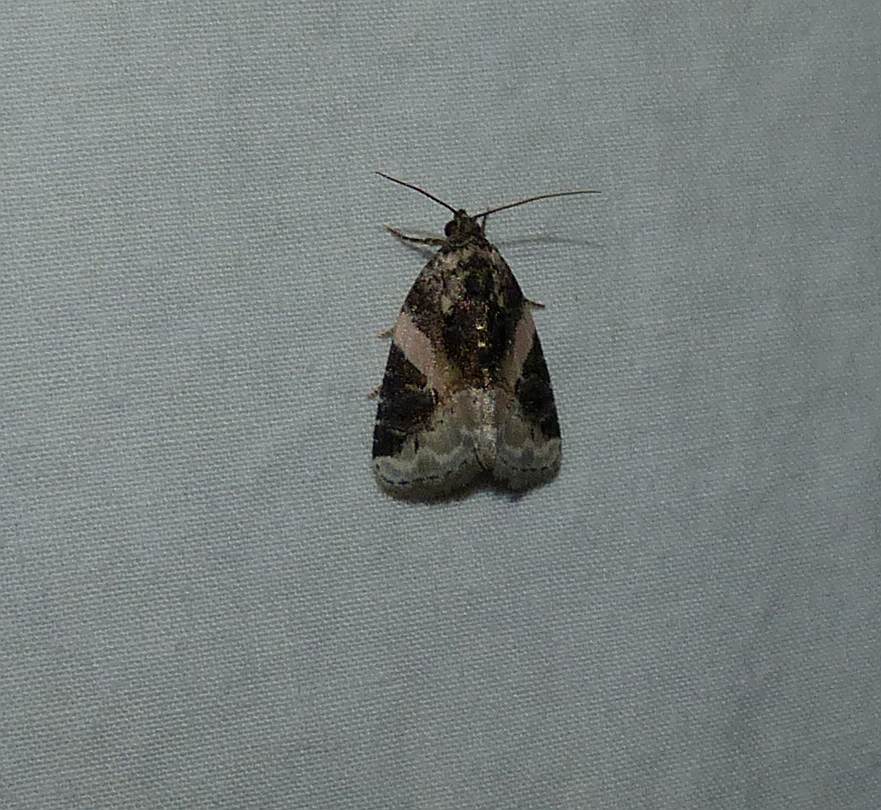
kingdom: Animalia
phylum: Arthropoda
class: Insecta
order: Lepidoptera
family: Noctuidae
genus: Pseudeustrotia
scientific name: Pseudeustrotia carneola
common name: Pink-barred lithacodia moth
